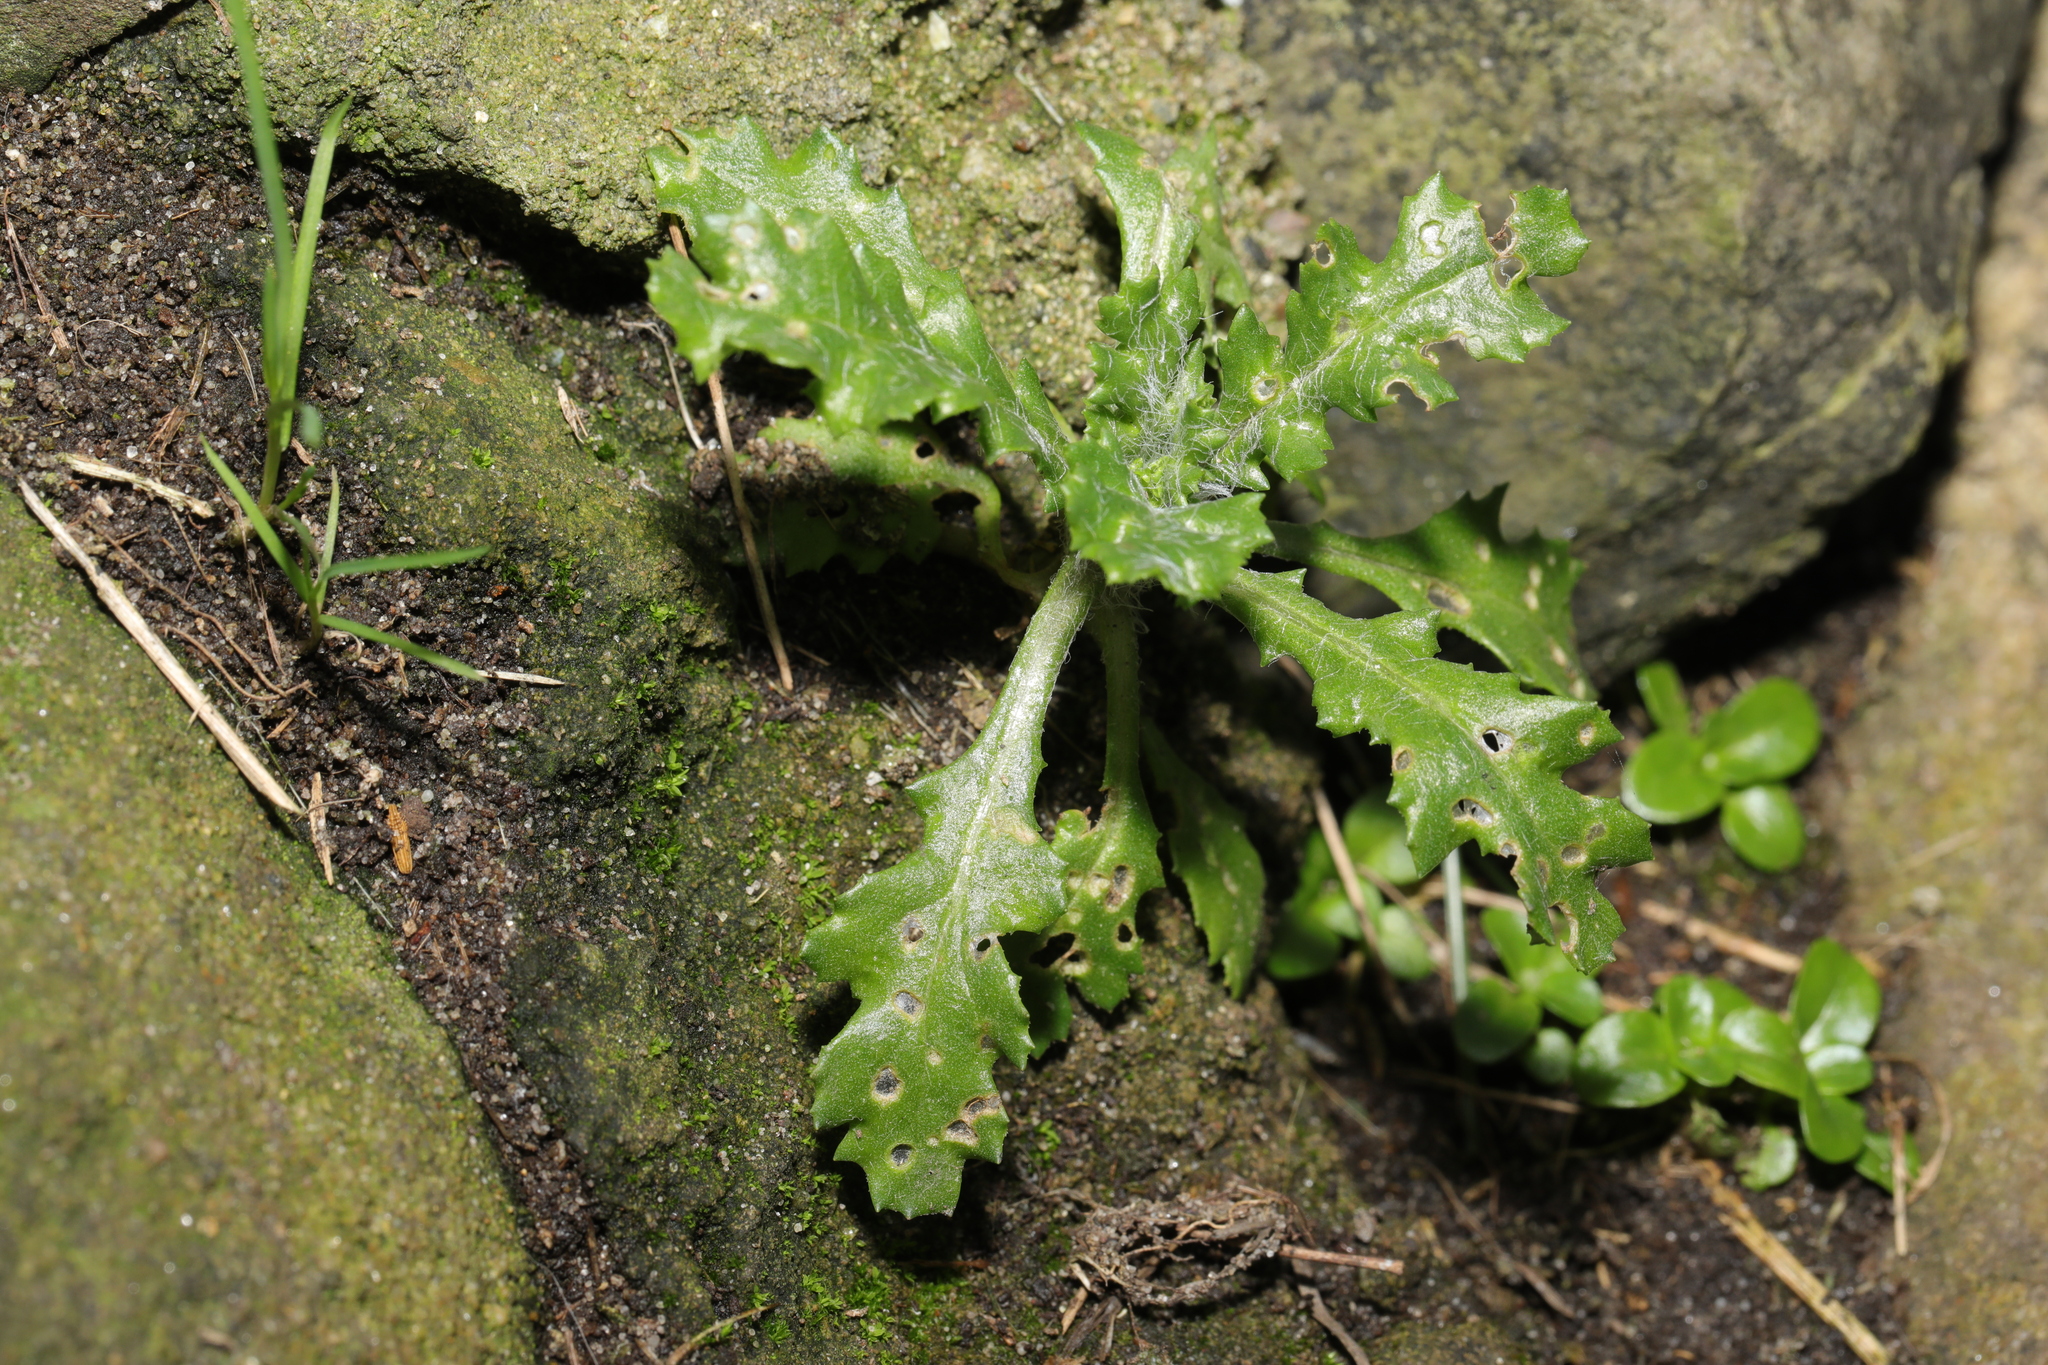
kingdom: Plantae
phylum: Tracheophyta
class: Magnoliopsida
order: Asterales
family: Asteraceae
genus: Senecio
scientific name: Senecio vulgaris
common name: Old-man-in-the-spring
